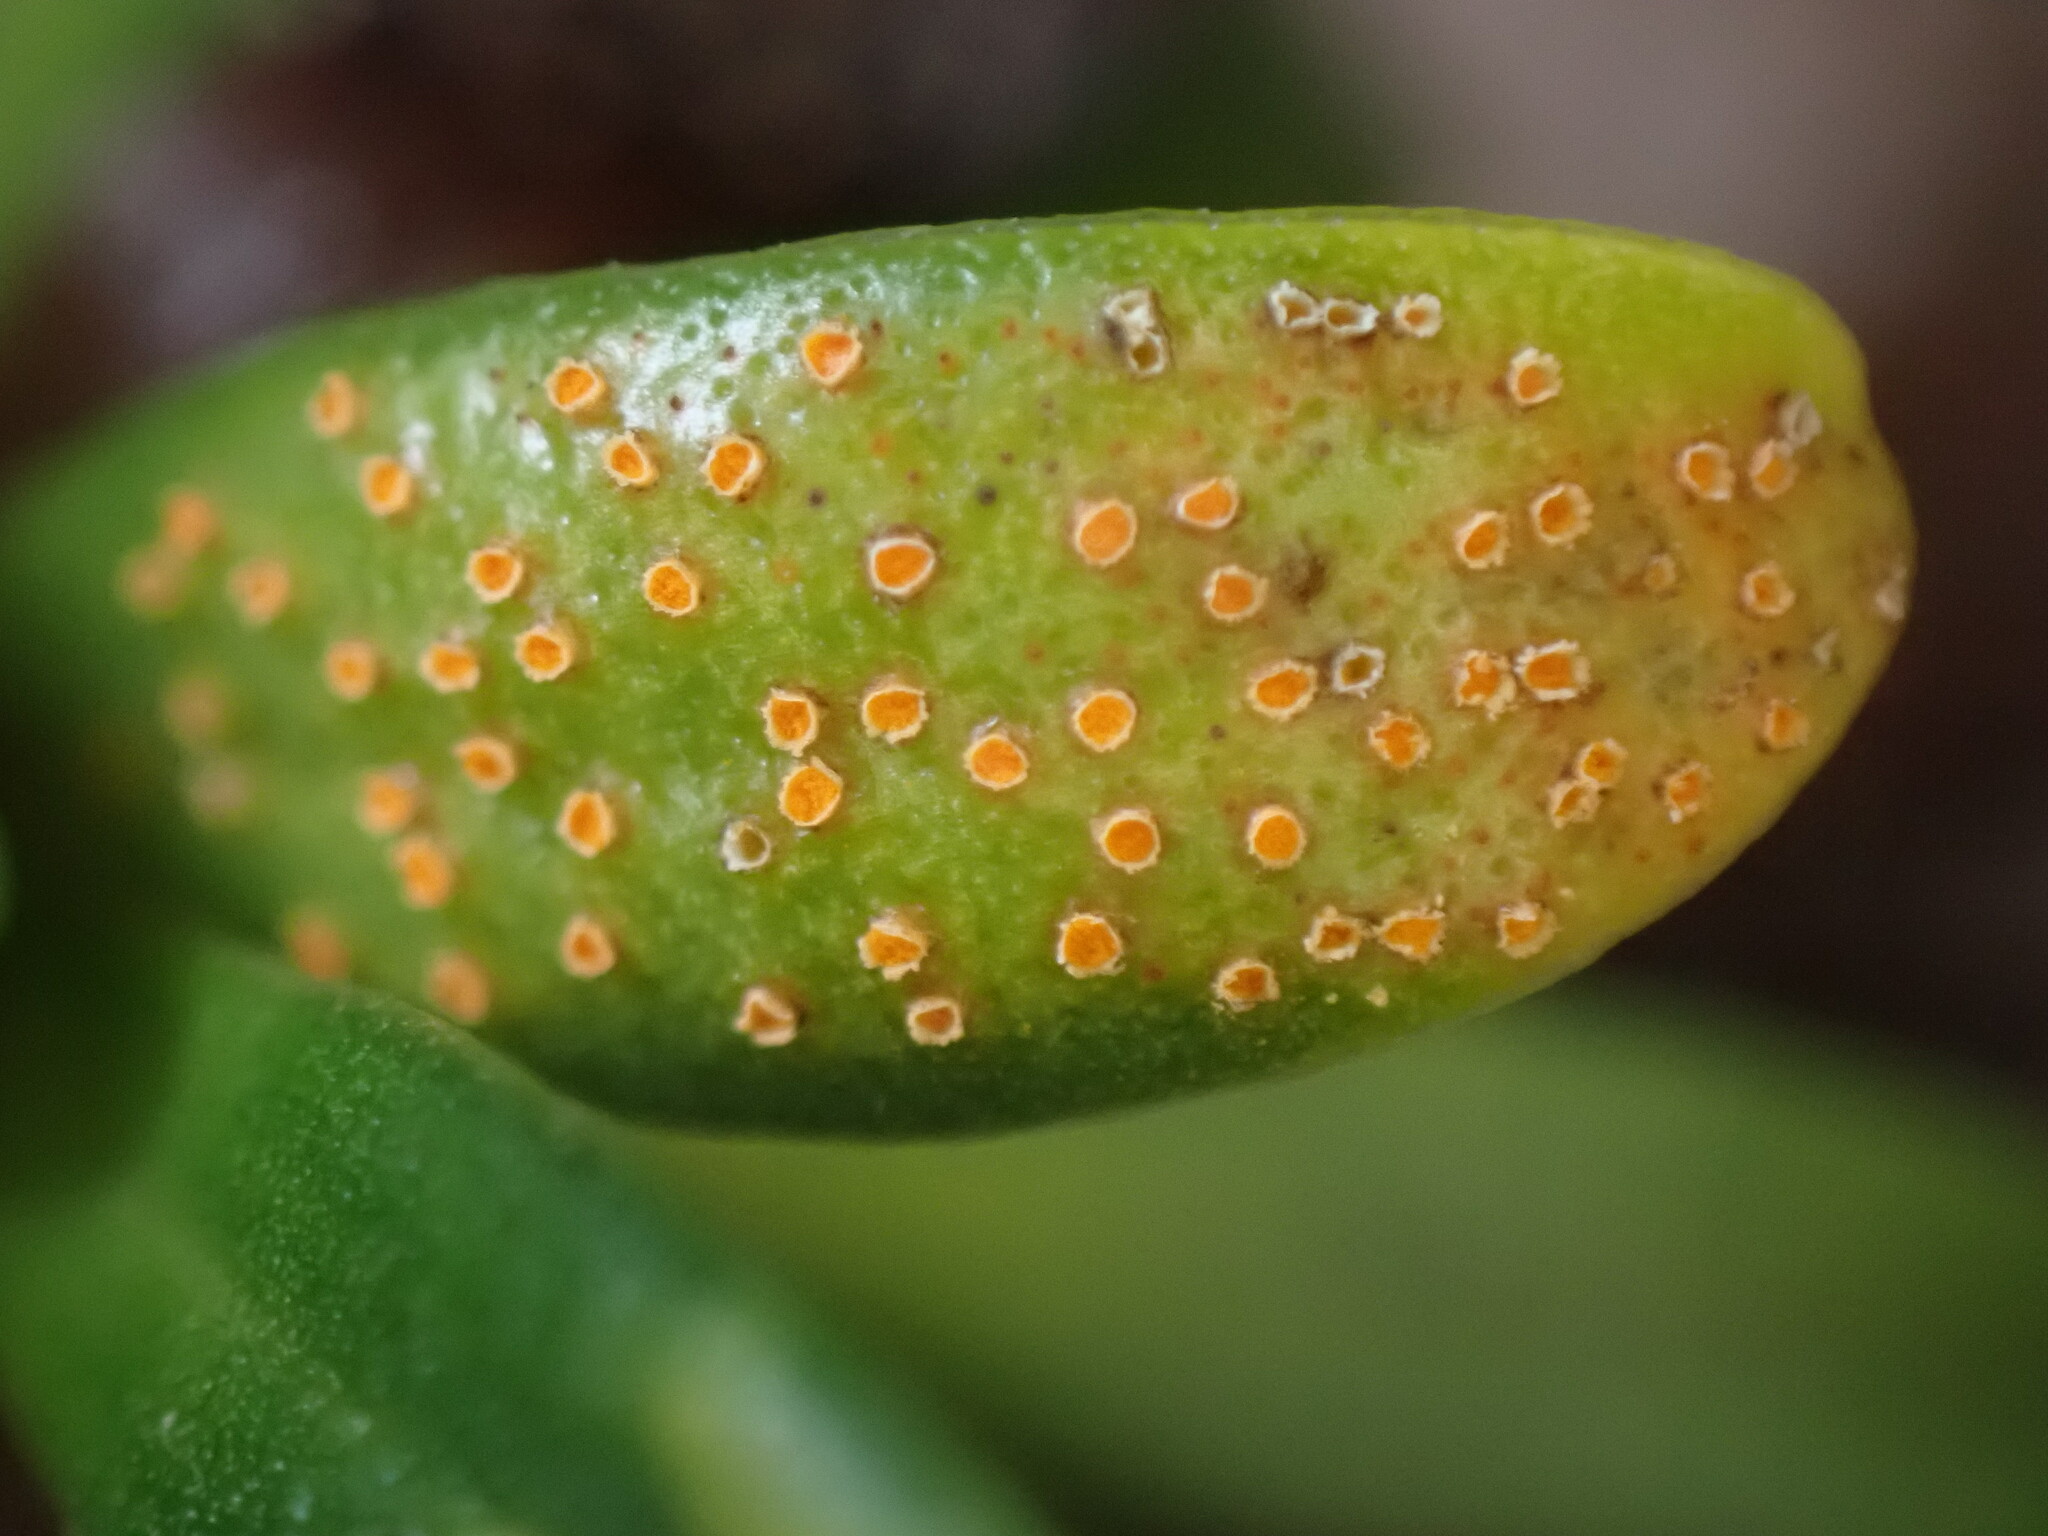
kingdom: Fungi
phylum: Basidiomycota
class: Pucciniomycetes
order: Pucciniales
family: Pucciniaceae
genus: Aecidium
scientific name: Aecidium monocystis
